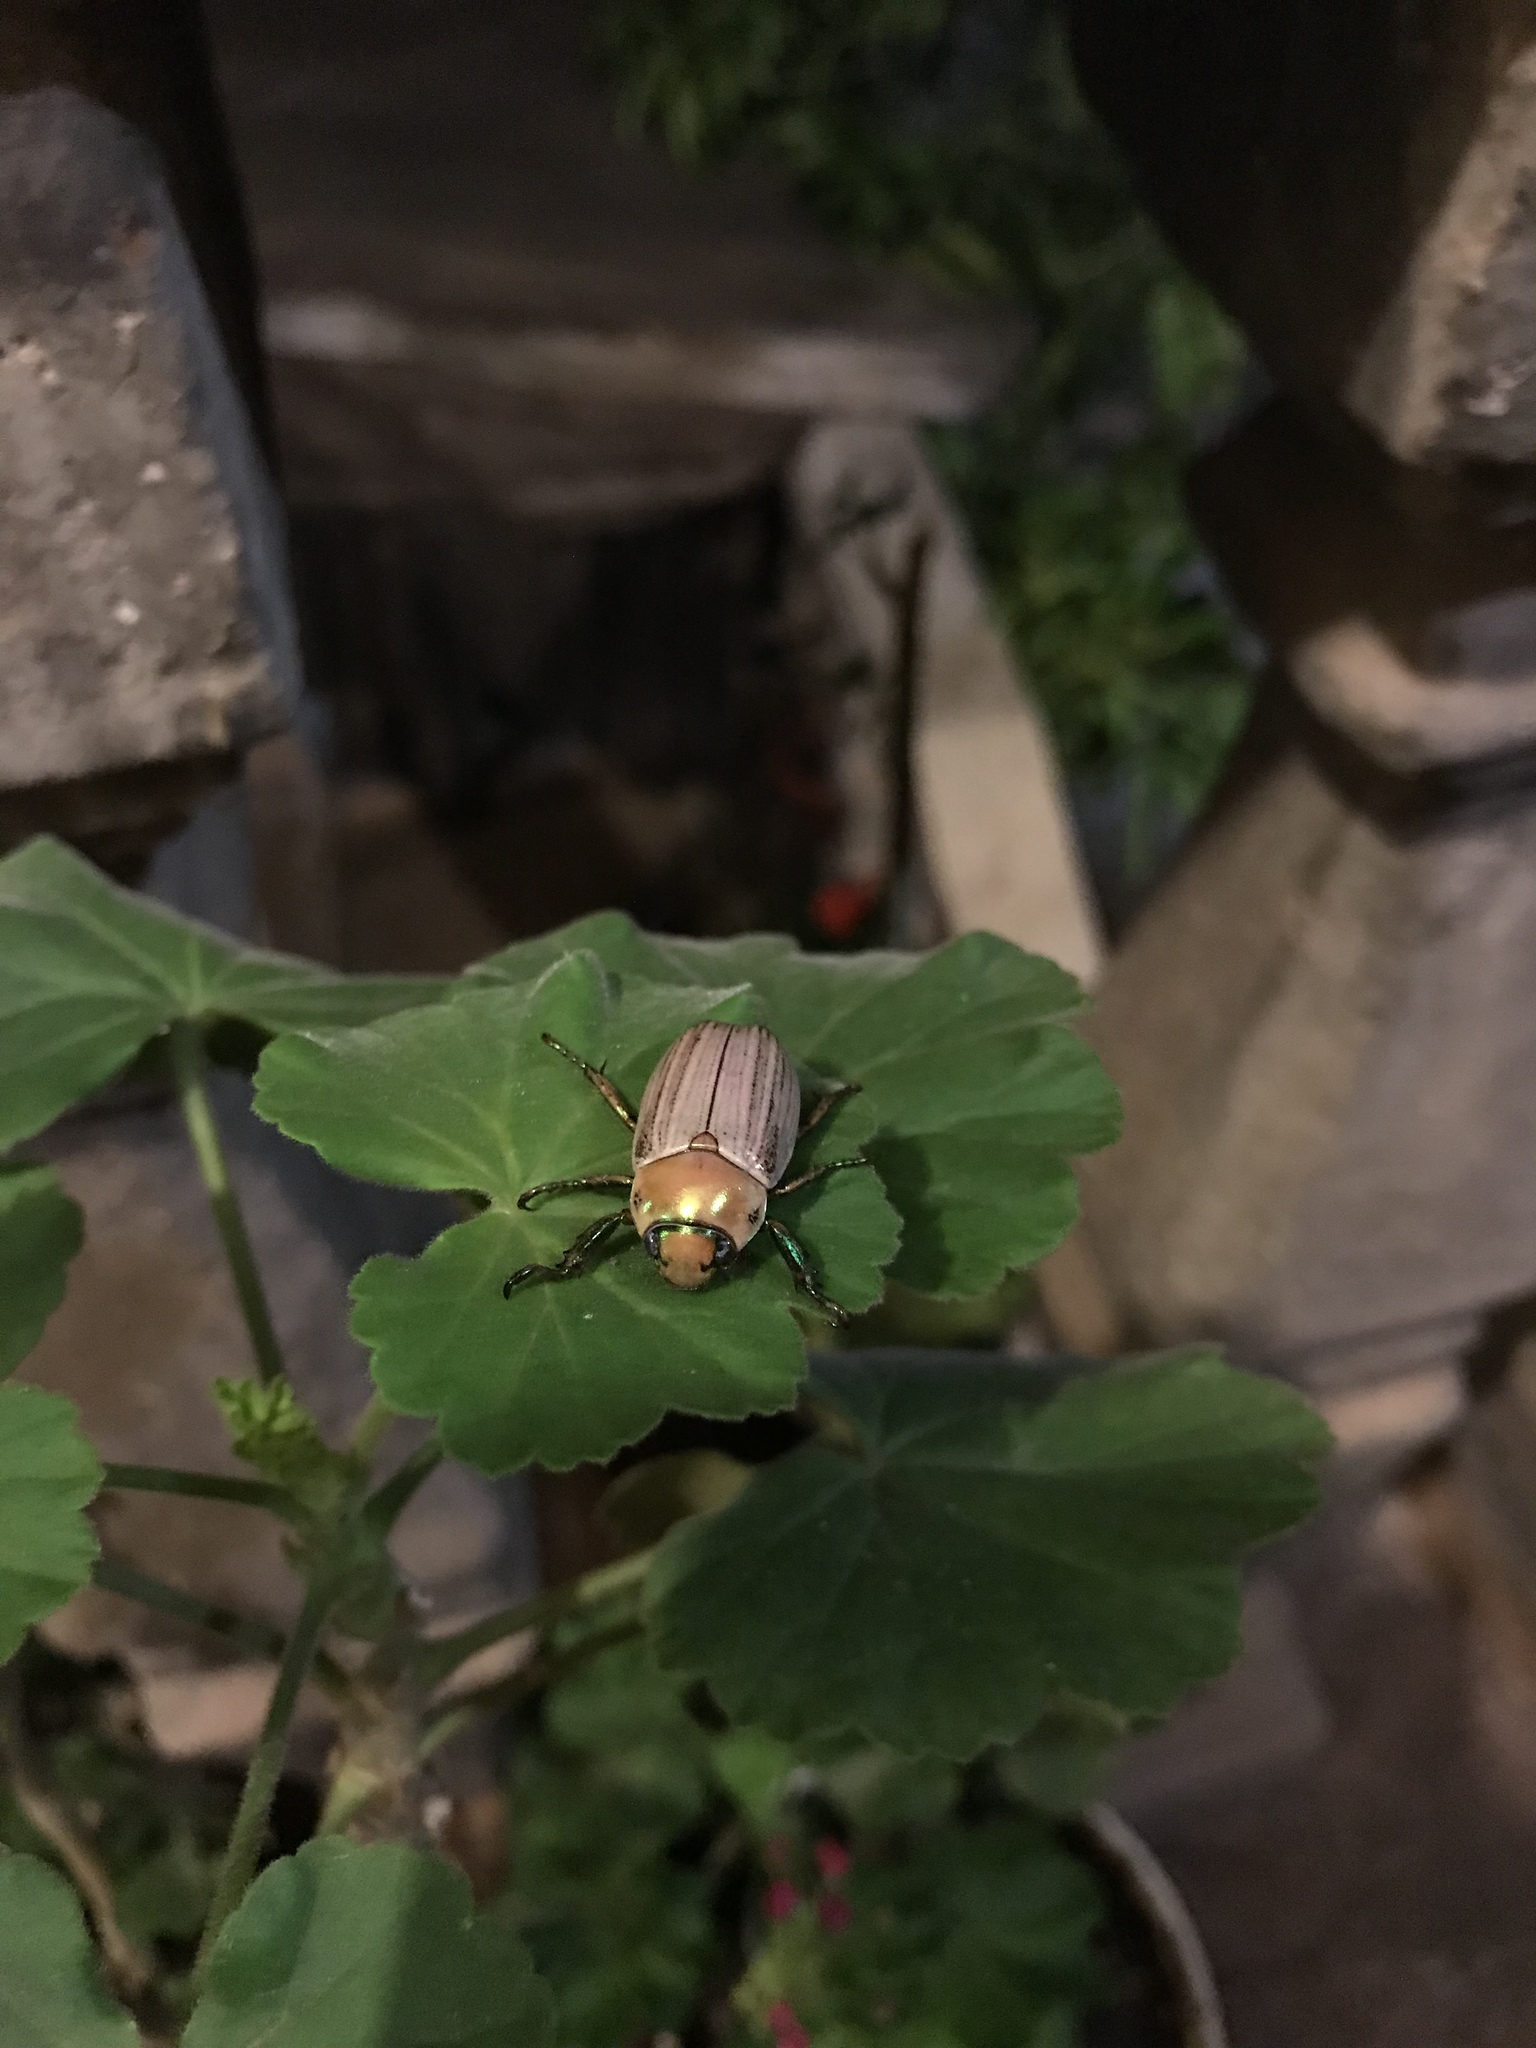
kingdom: Animalia
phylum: Arthropoda
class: Insecta
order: Coleoptera
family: Scarabaeidae
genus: Pelidnota
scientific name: Pelidnota virescens
